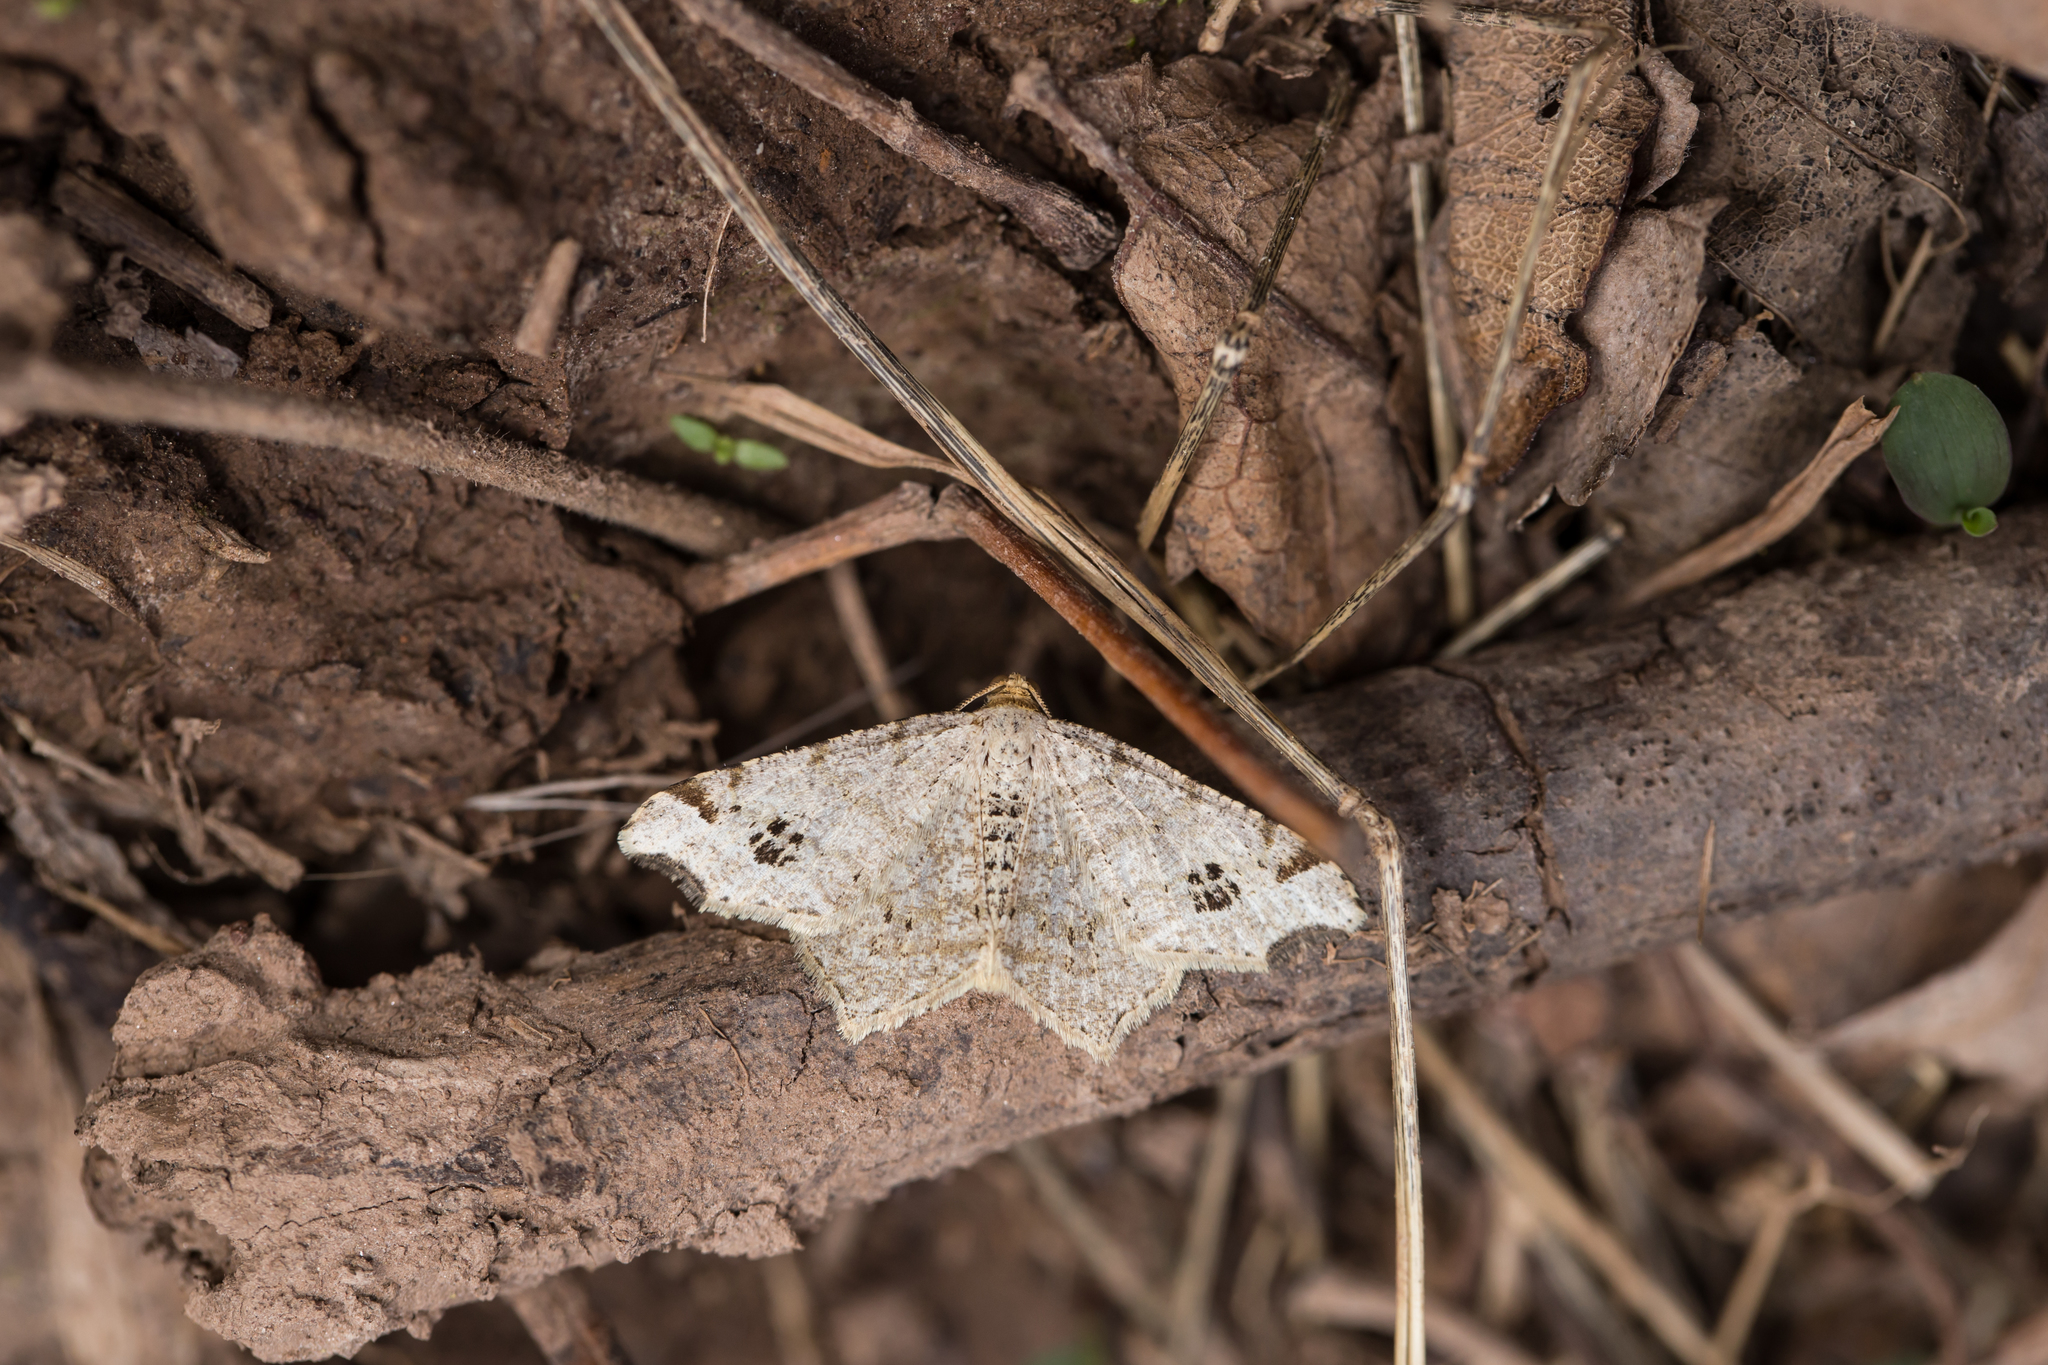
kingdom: Animalia
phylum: Arthropoda
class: Insecta
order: Lepidoptera
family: Geometridae
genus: Macaria
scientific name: Macaria aemulataria
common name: Common angle
